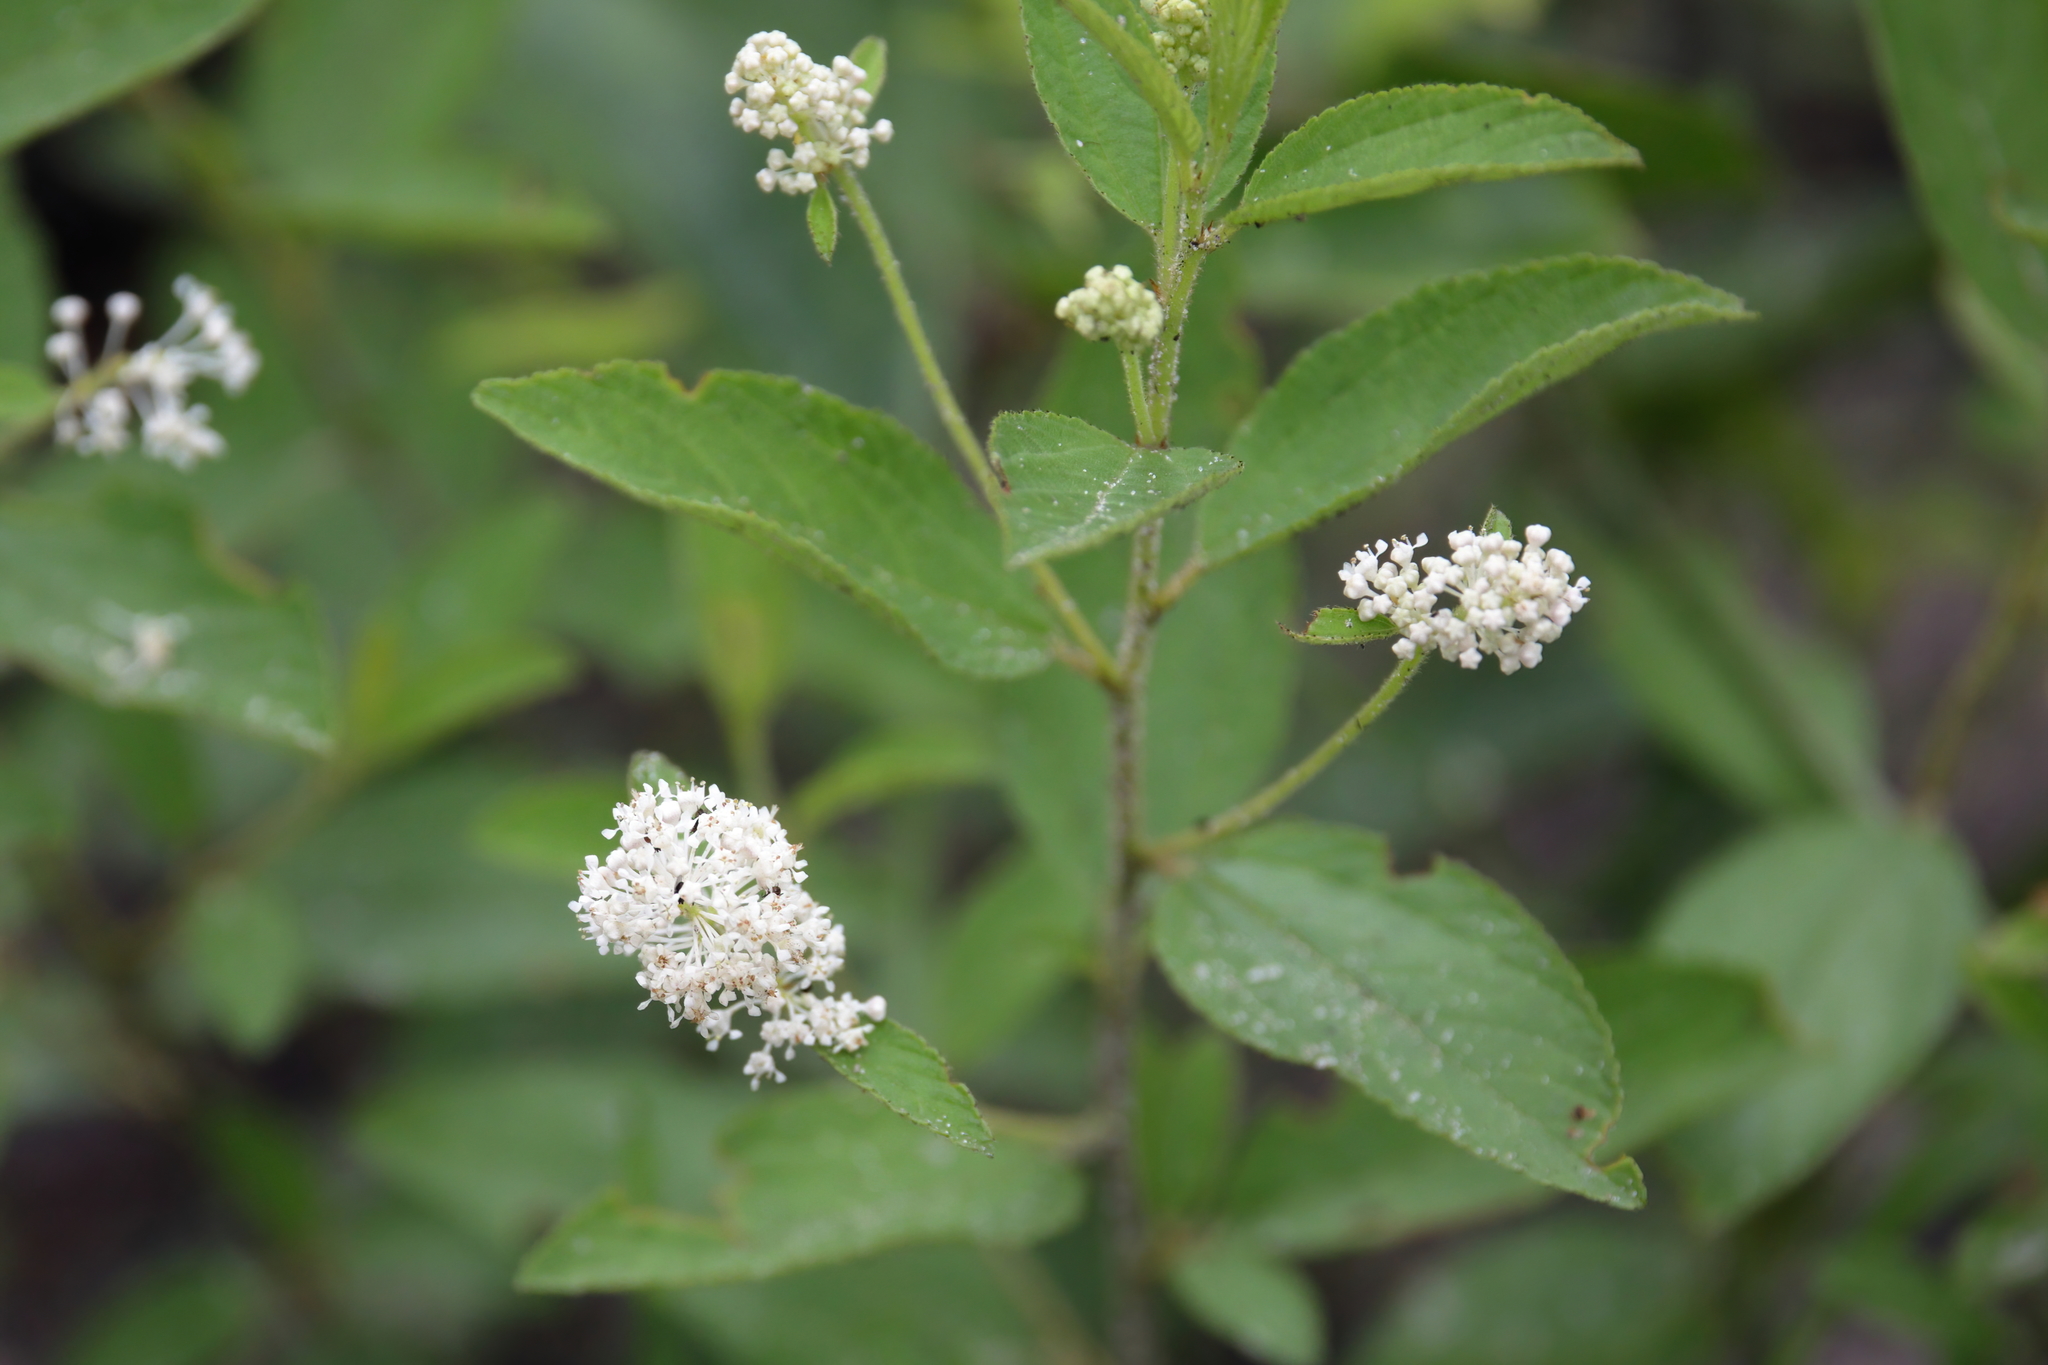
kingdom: Plantae
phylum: Tracheophyta
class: Magnoliopsida
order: Rosales
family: Rhamnaceae
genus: Ceanothus
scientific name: Ceanothus americanus
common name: Redroot
